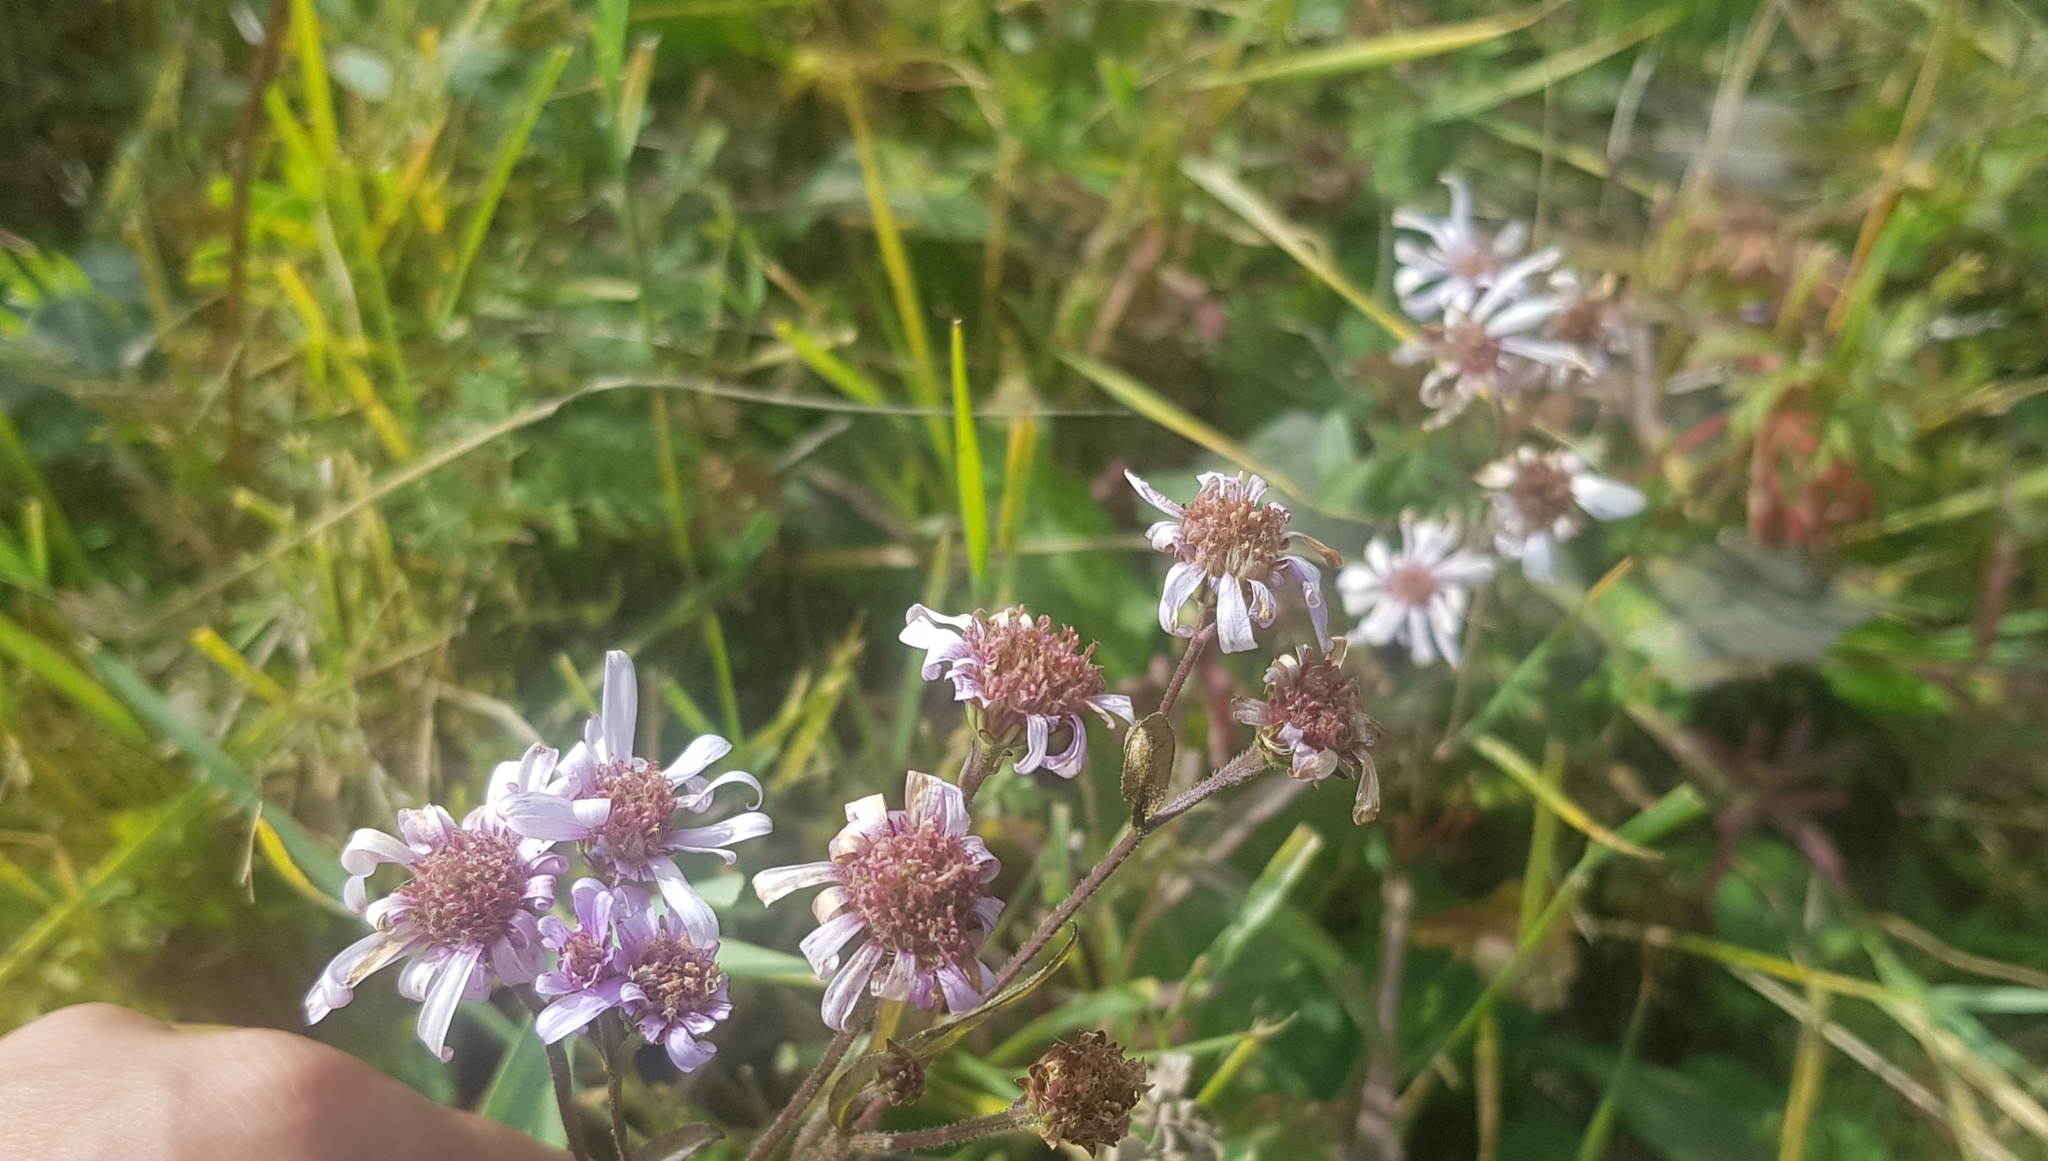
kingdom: Plantae
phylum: Tracheophyta
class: Magnoliopsida
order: Asterales
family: Asteraceae
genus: Aster
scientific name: Aster tataricus
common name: Tatarian aster
